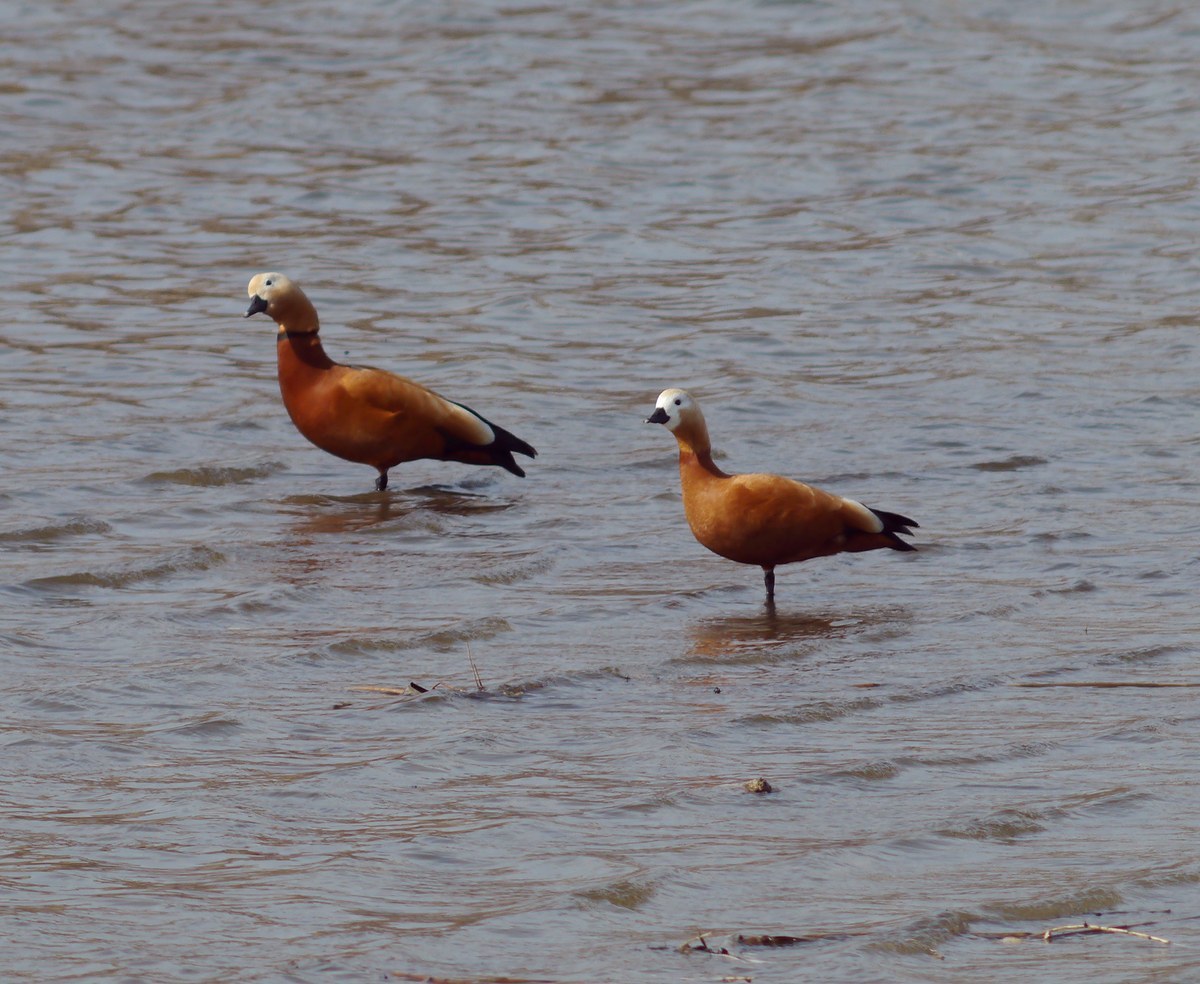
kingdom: Animalia
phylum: Chordata
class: Aves
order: Anseriformes
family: Anatidae
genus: Tadorna
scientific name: Tadorna ferruginea
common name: Ruddy shelduck
